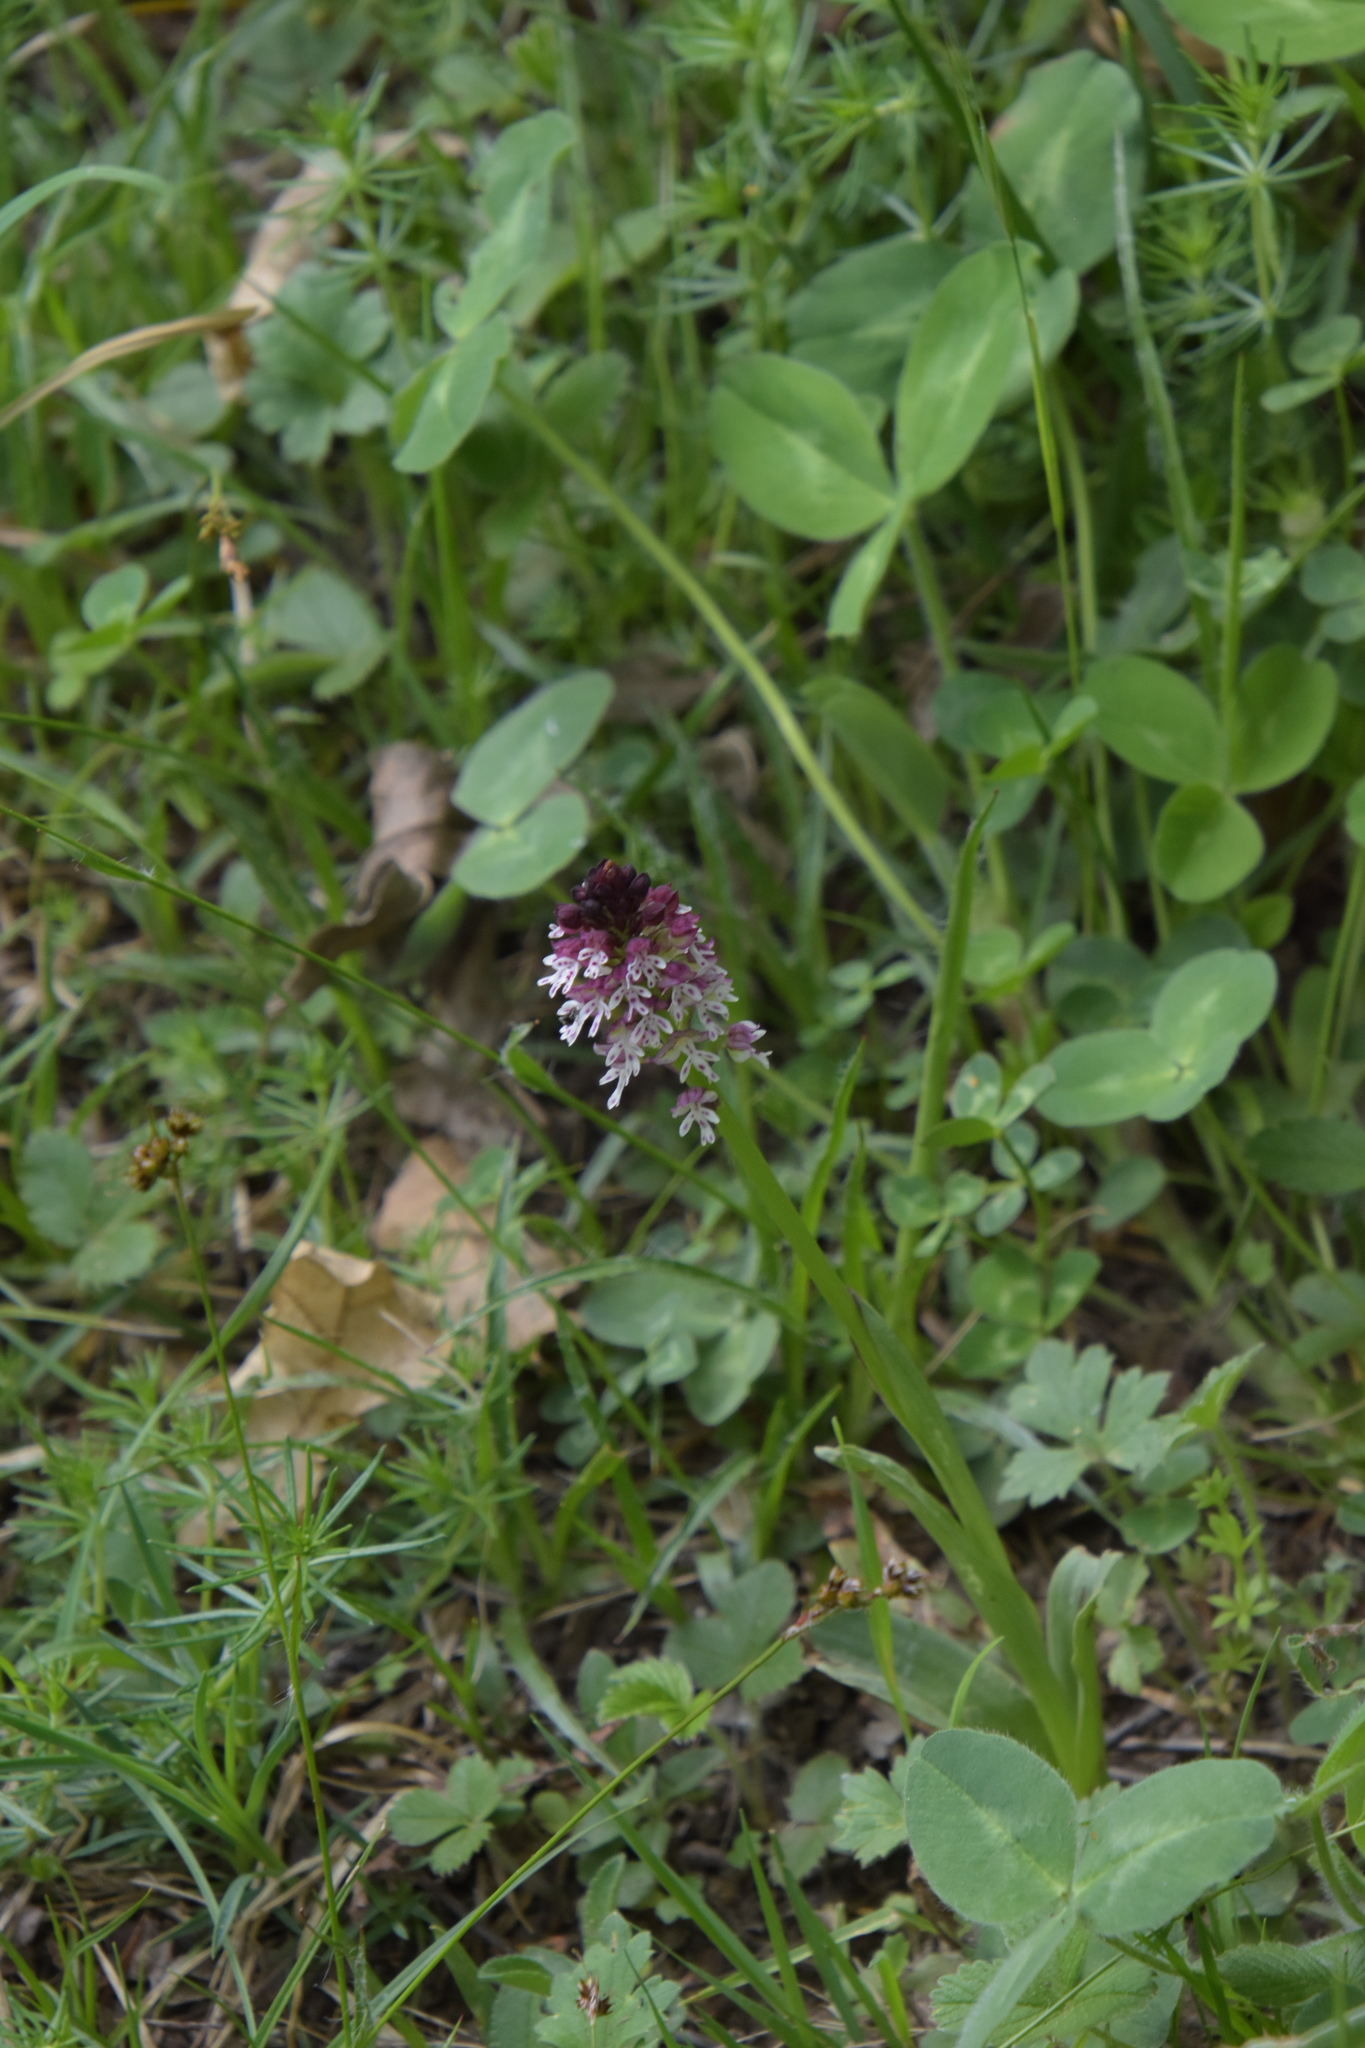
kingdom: Plantae
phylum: Tracheophyta
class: Liliopsida
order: Asparagales
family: Orchidaceae
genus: Neotinea
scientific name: Neotinea ustulata
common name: Burnt orchid
